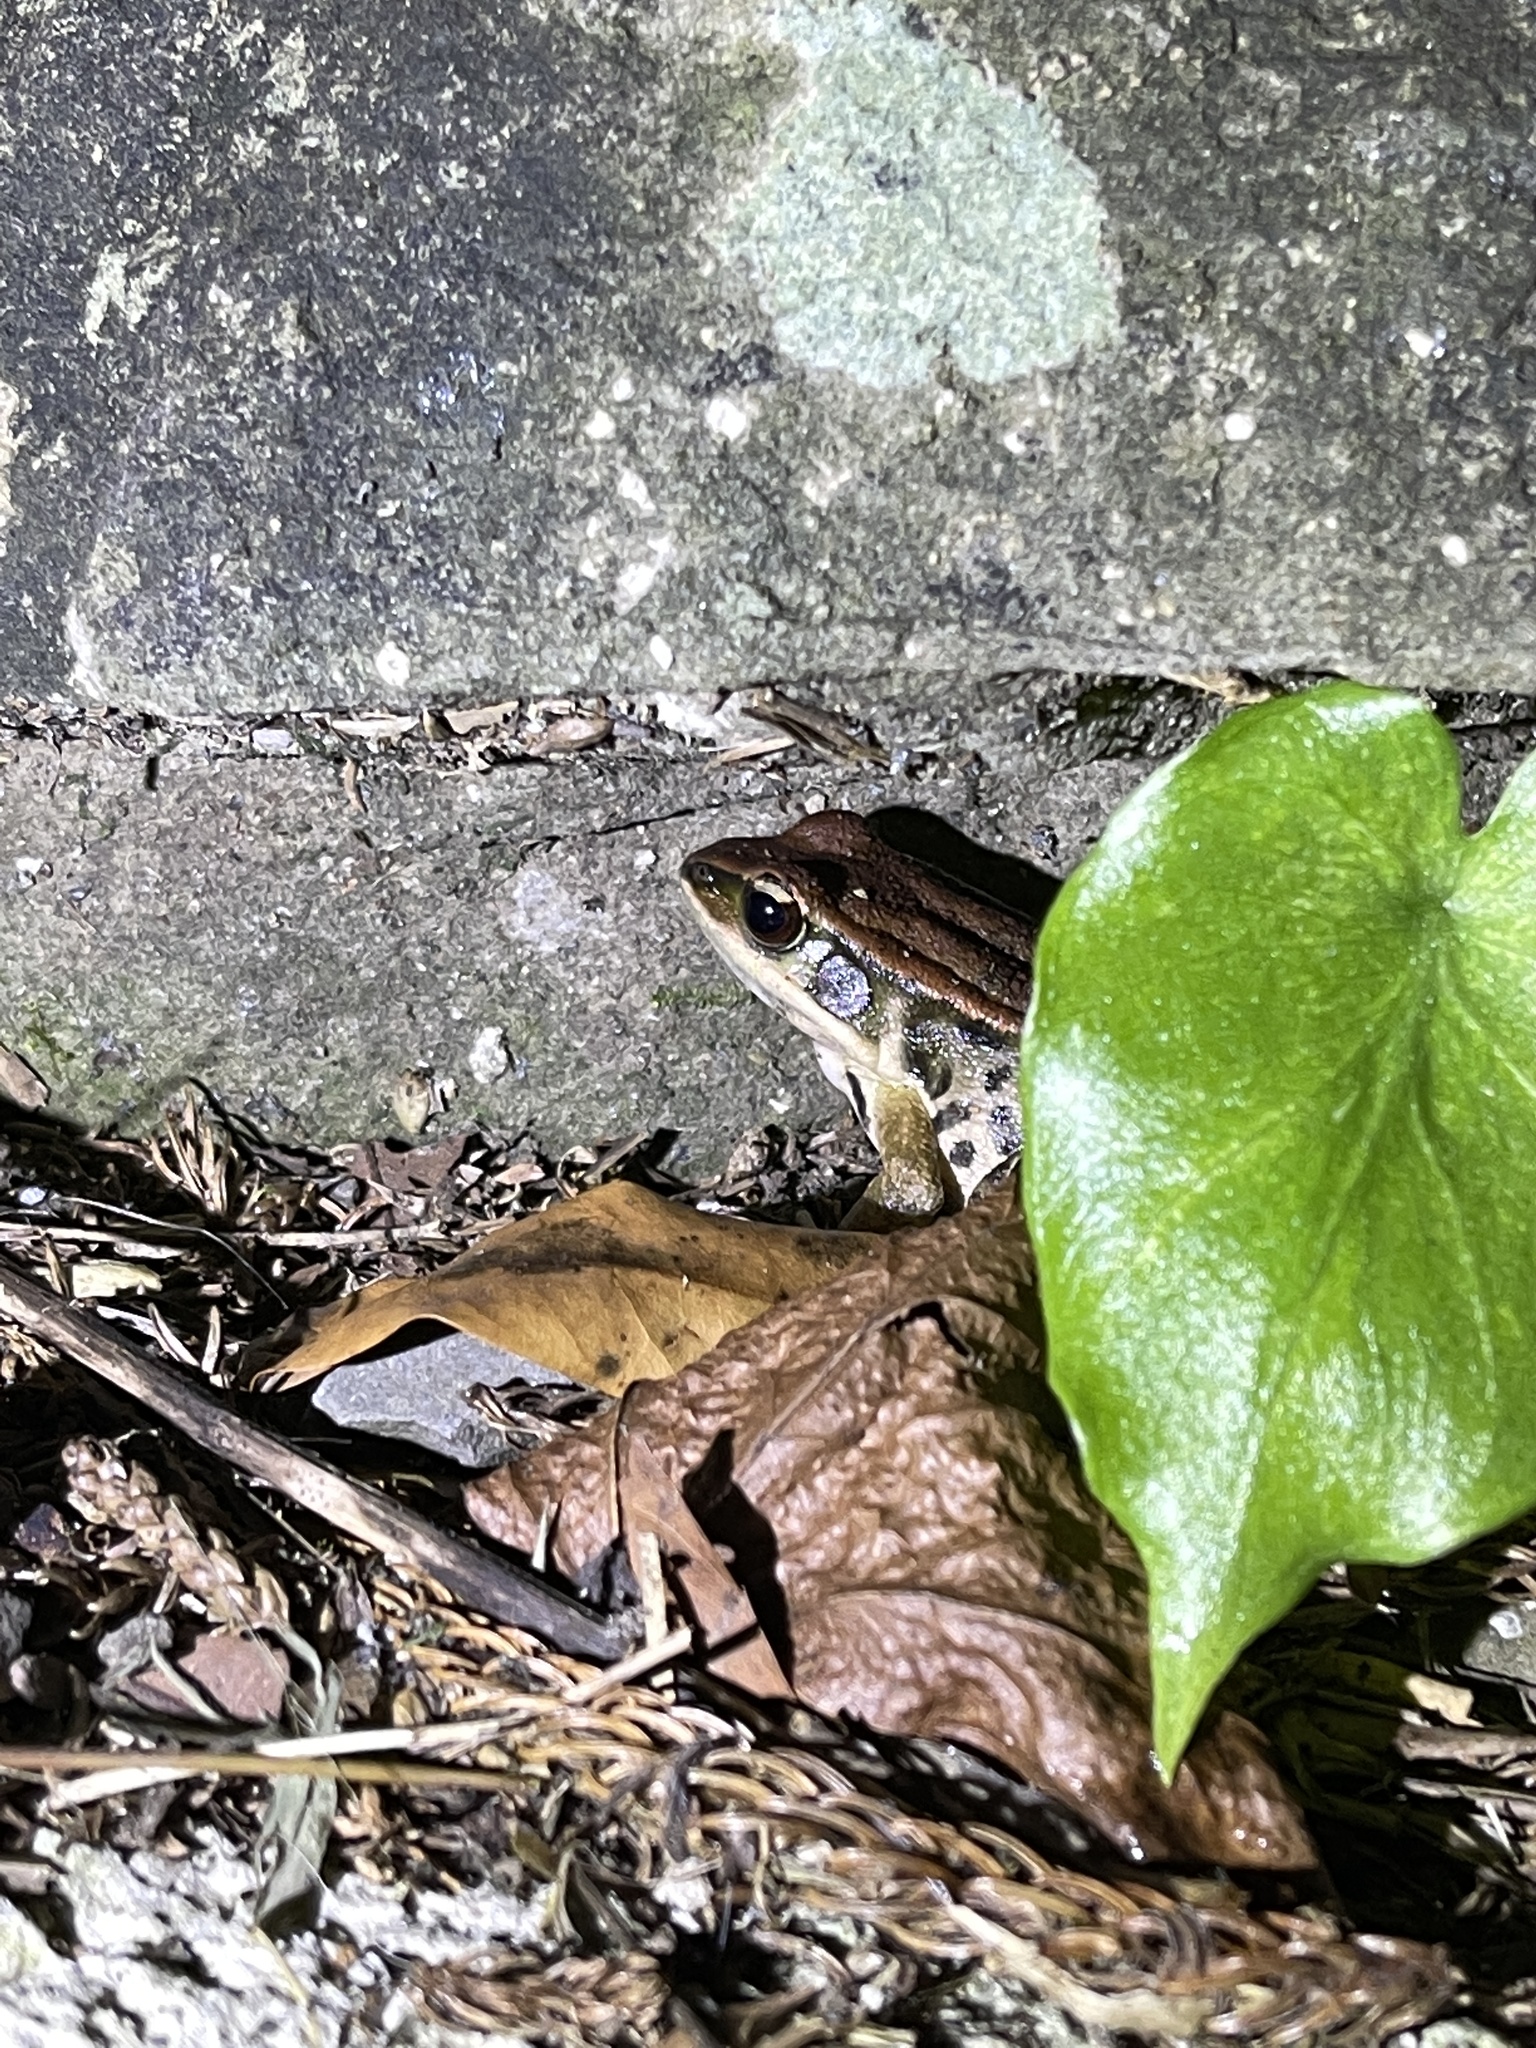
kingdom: Animalia
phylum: Chordata
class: Amphibia
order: Anura
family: Ranidae
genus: Hylarana
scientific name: Hylarana latouchii
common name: Broad-folded frog
